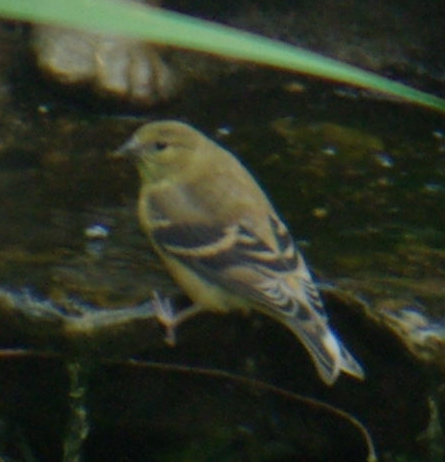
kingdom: Animalia
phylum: Chordata
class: Aves
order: Passeriformes
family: Fringillidae
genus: Spinus
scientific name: Spinus tristis
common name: American goldfinch
